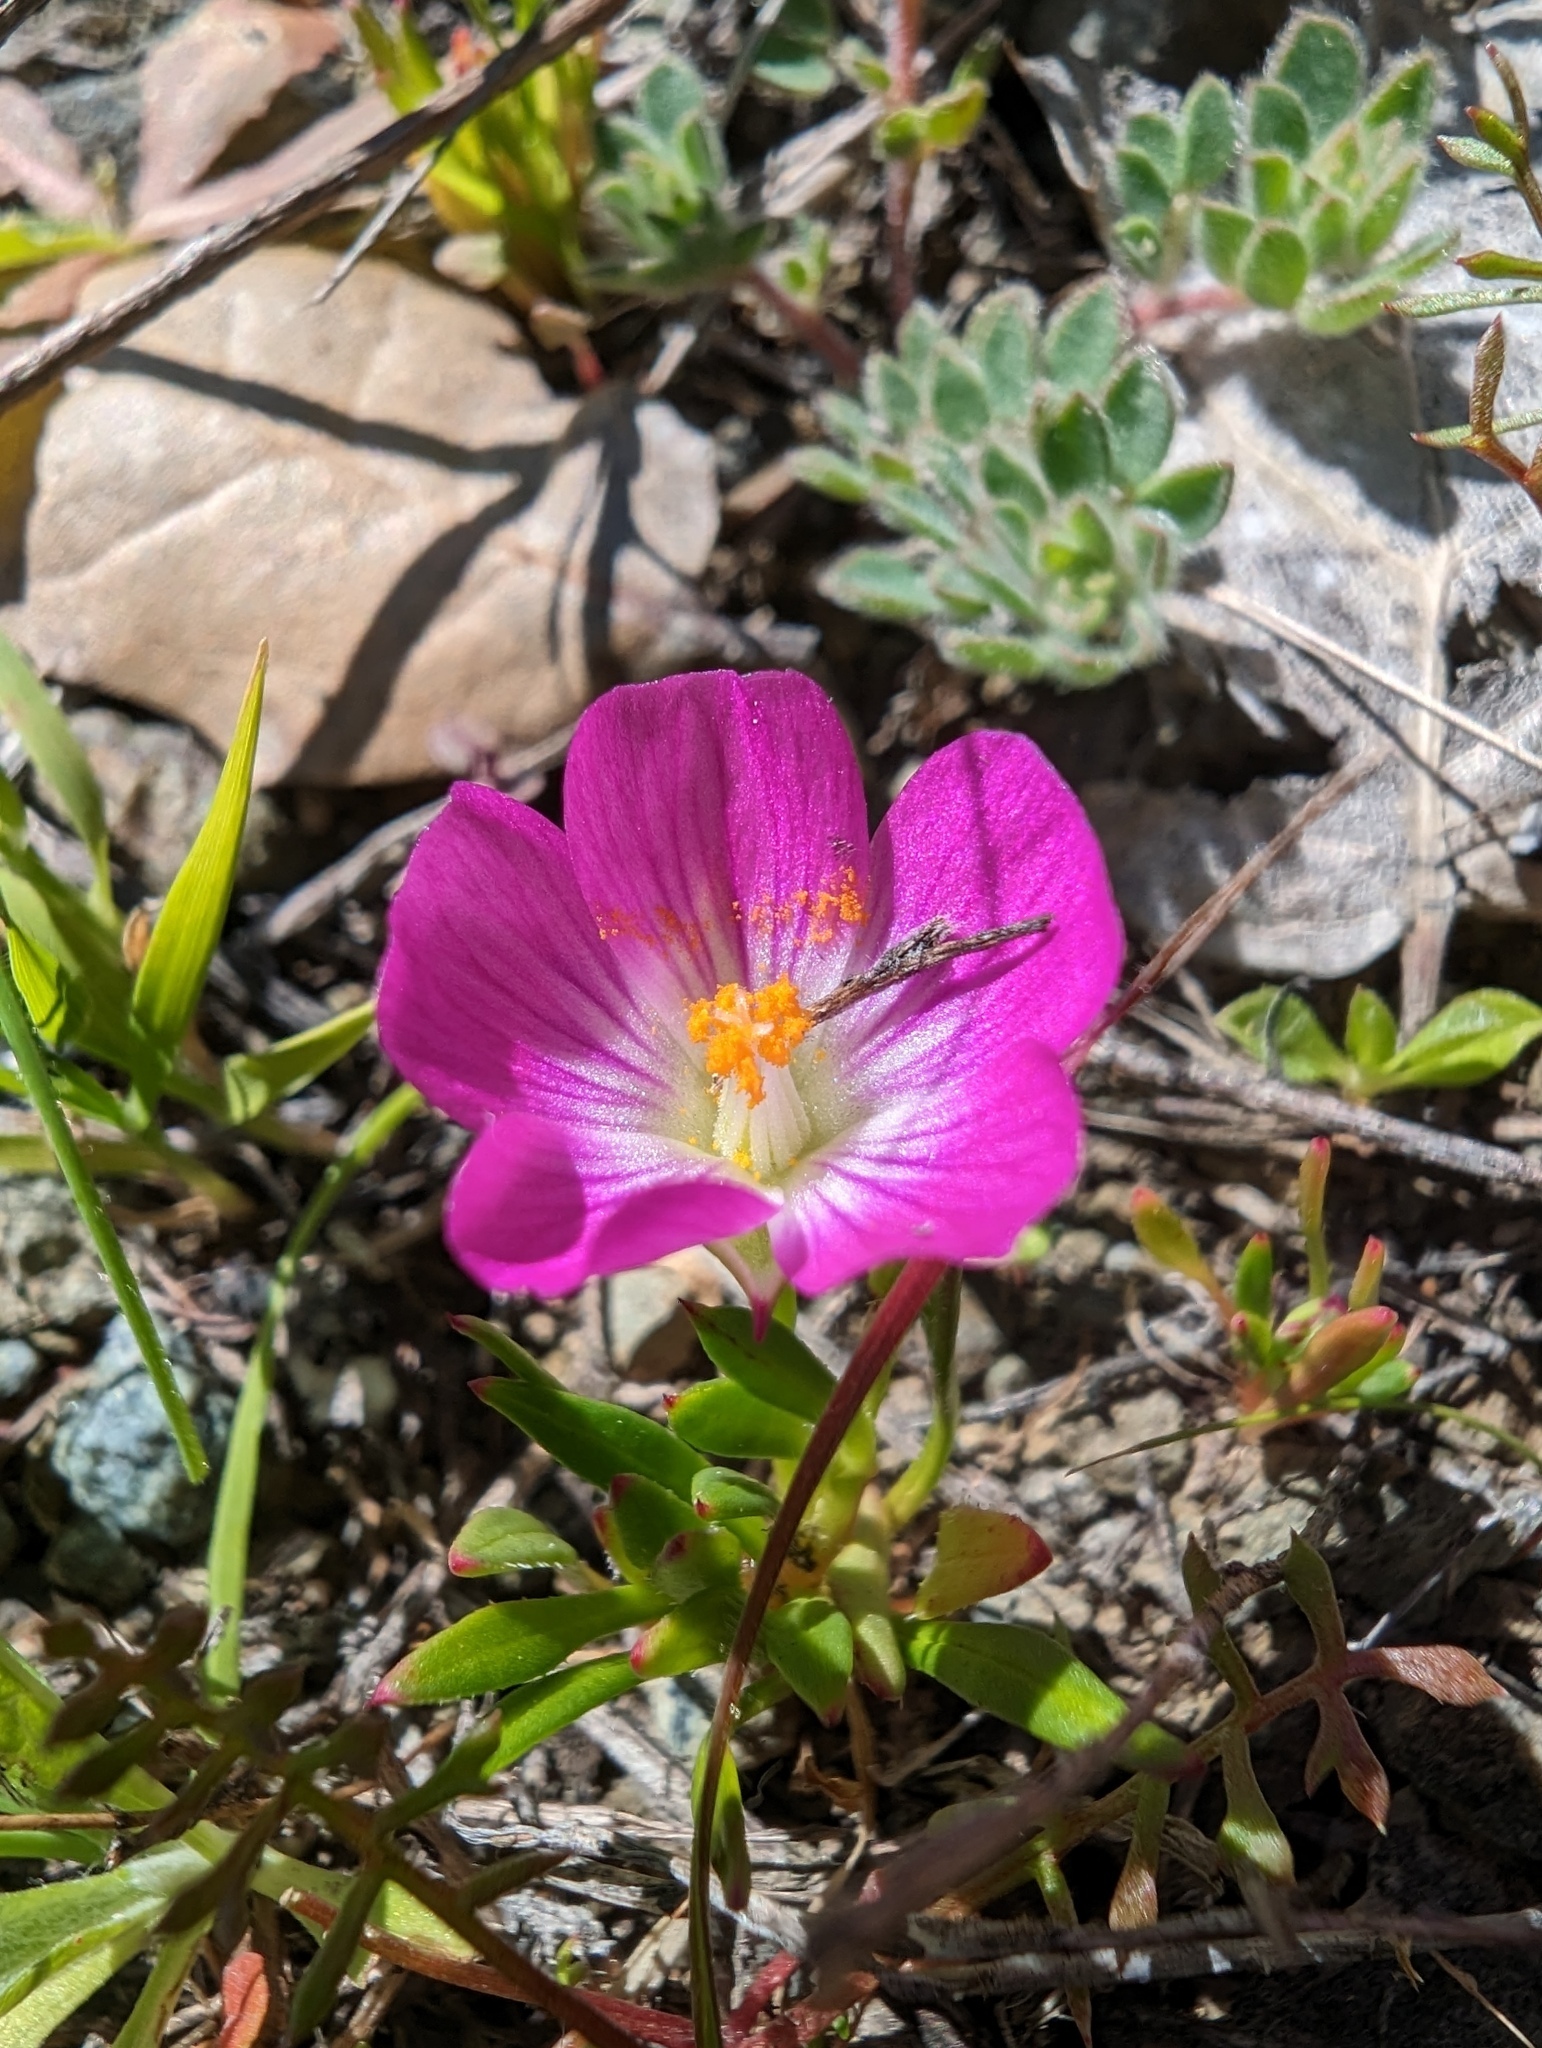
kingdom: Plantae
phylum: Tracheophyta
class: Magnoliopsida
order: Caryophyllales
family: Montiaceae
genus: Calandrinia
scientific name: Calandrinia menziesii
